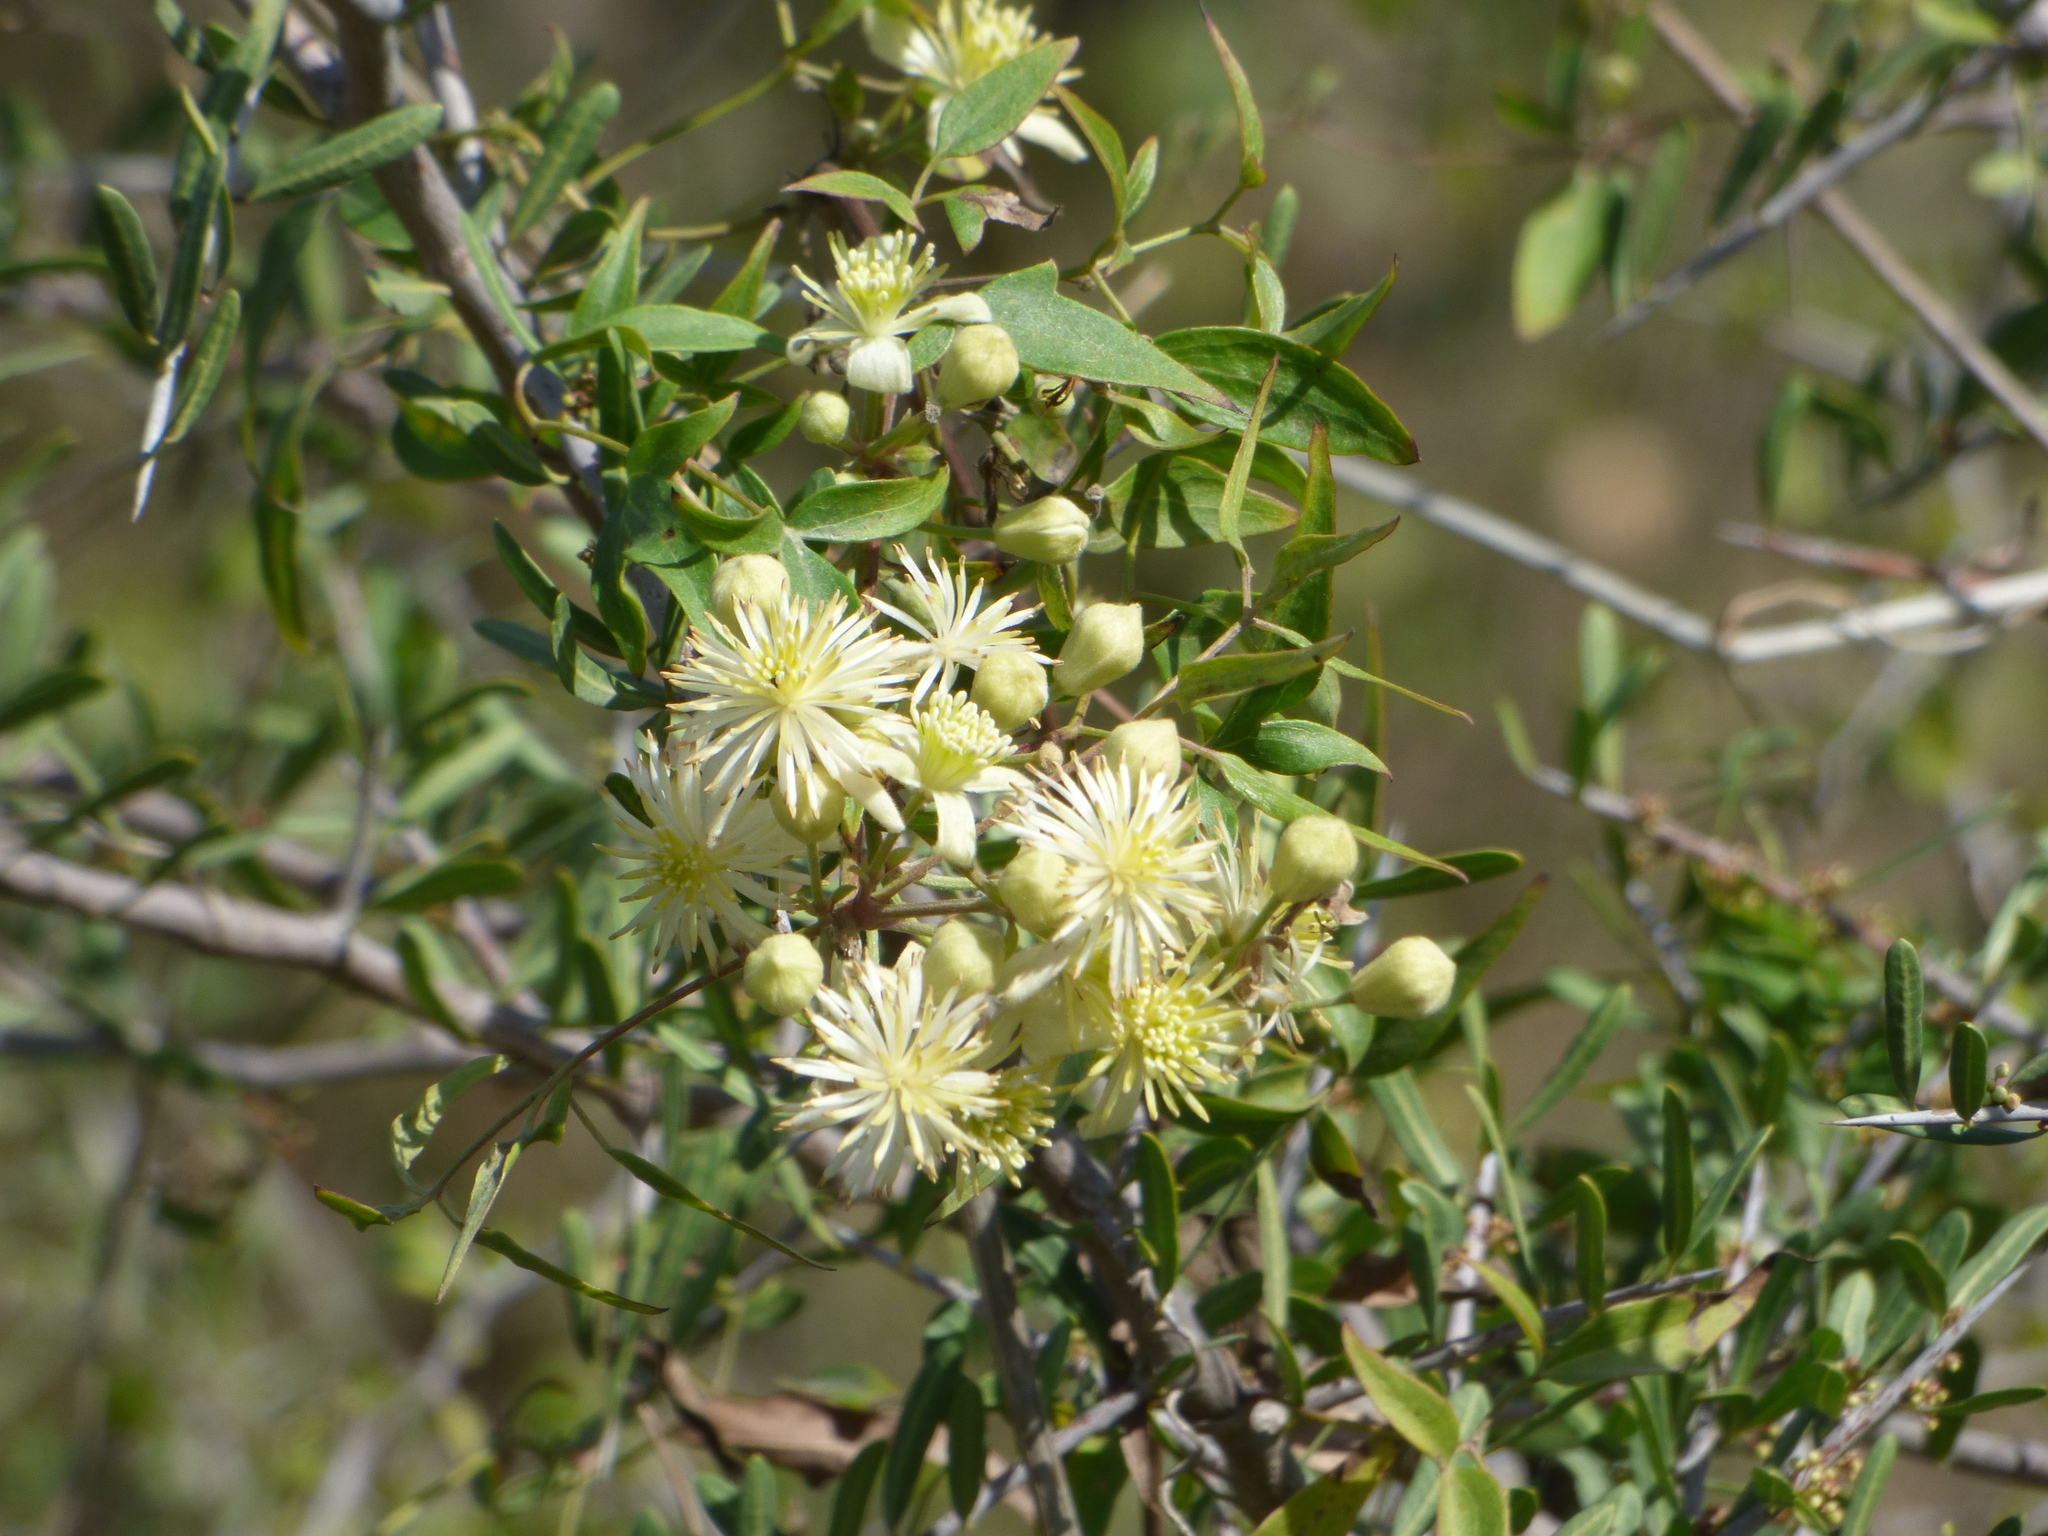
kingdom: Plantae
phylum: Tracheophyta
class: Magnoliopsida
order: Ranunculales
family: Ranunculaceae
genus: Clematis
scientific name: Clematis montevidensis
